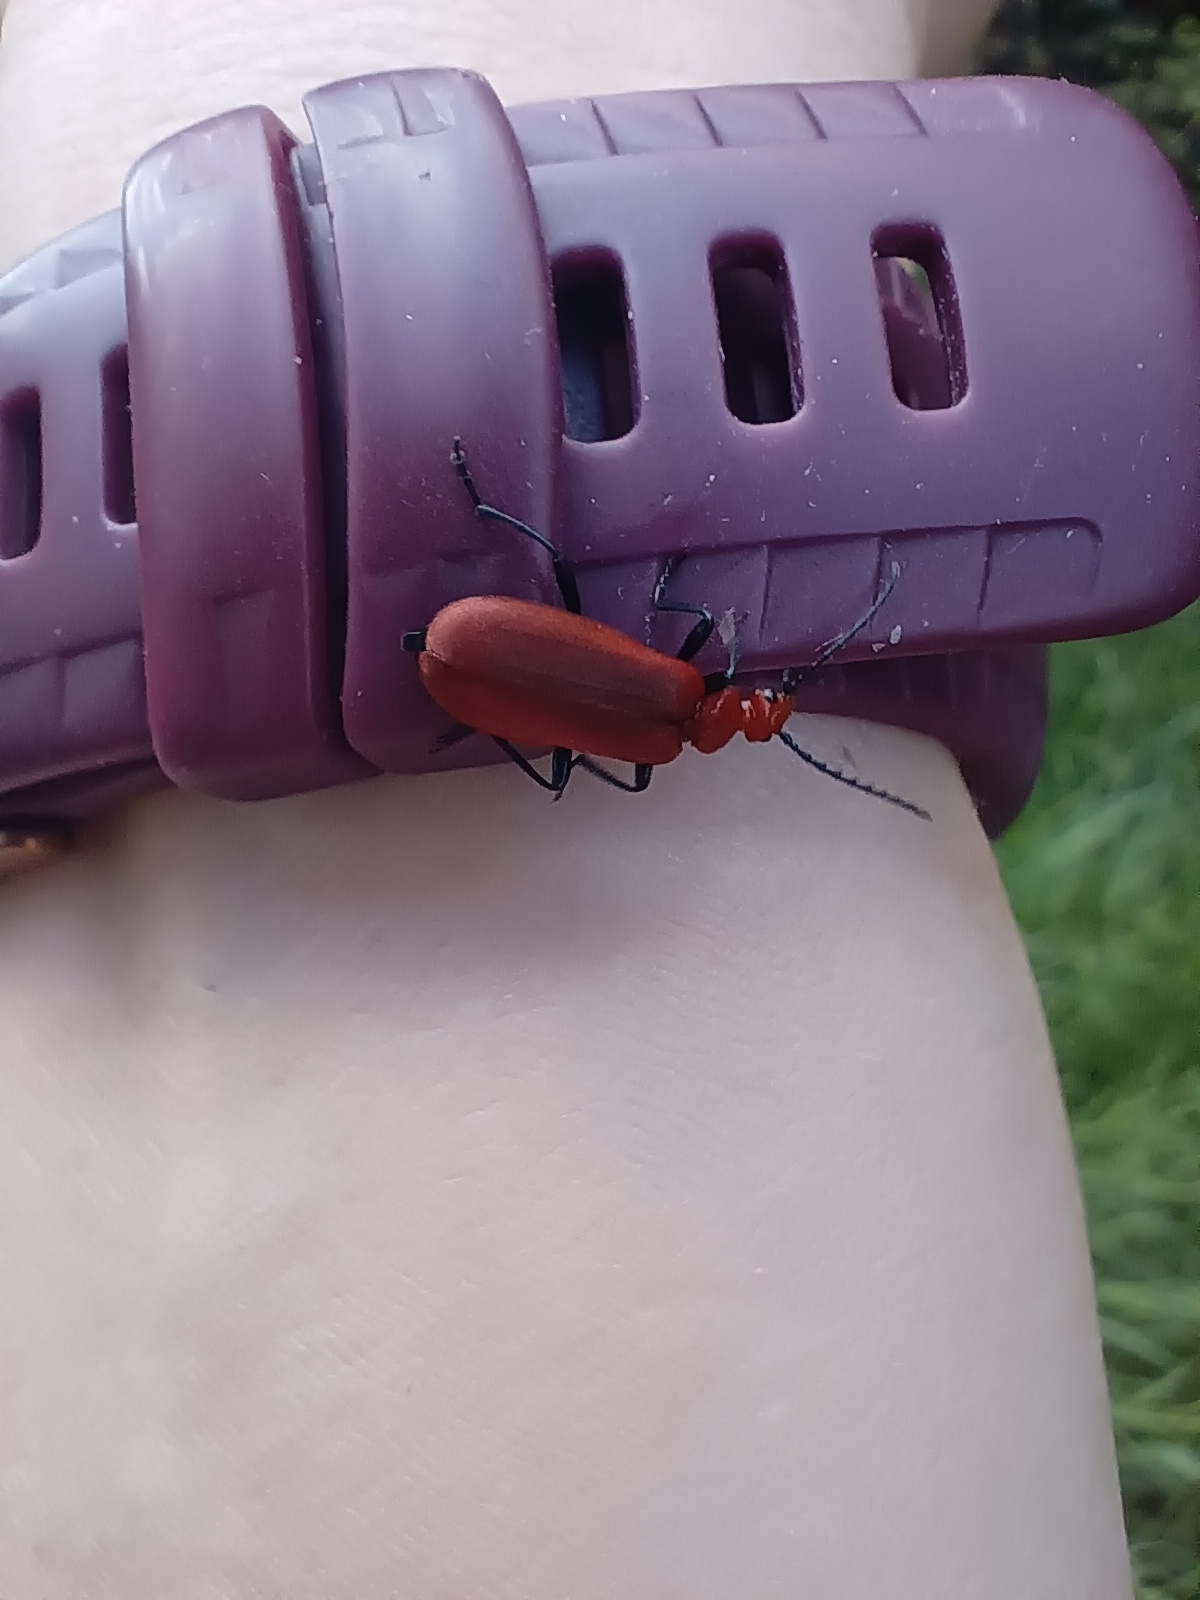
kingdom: Animalia
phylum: Arthropoda
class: Insecta
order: Coleoptera
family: Pyrochroidae
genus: Pyrochroa
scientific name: Pyrochroa serraticornis
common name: Red-headed cardinal beetle
